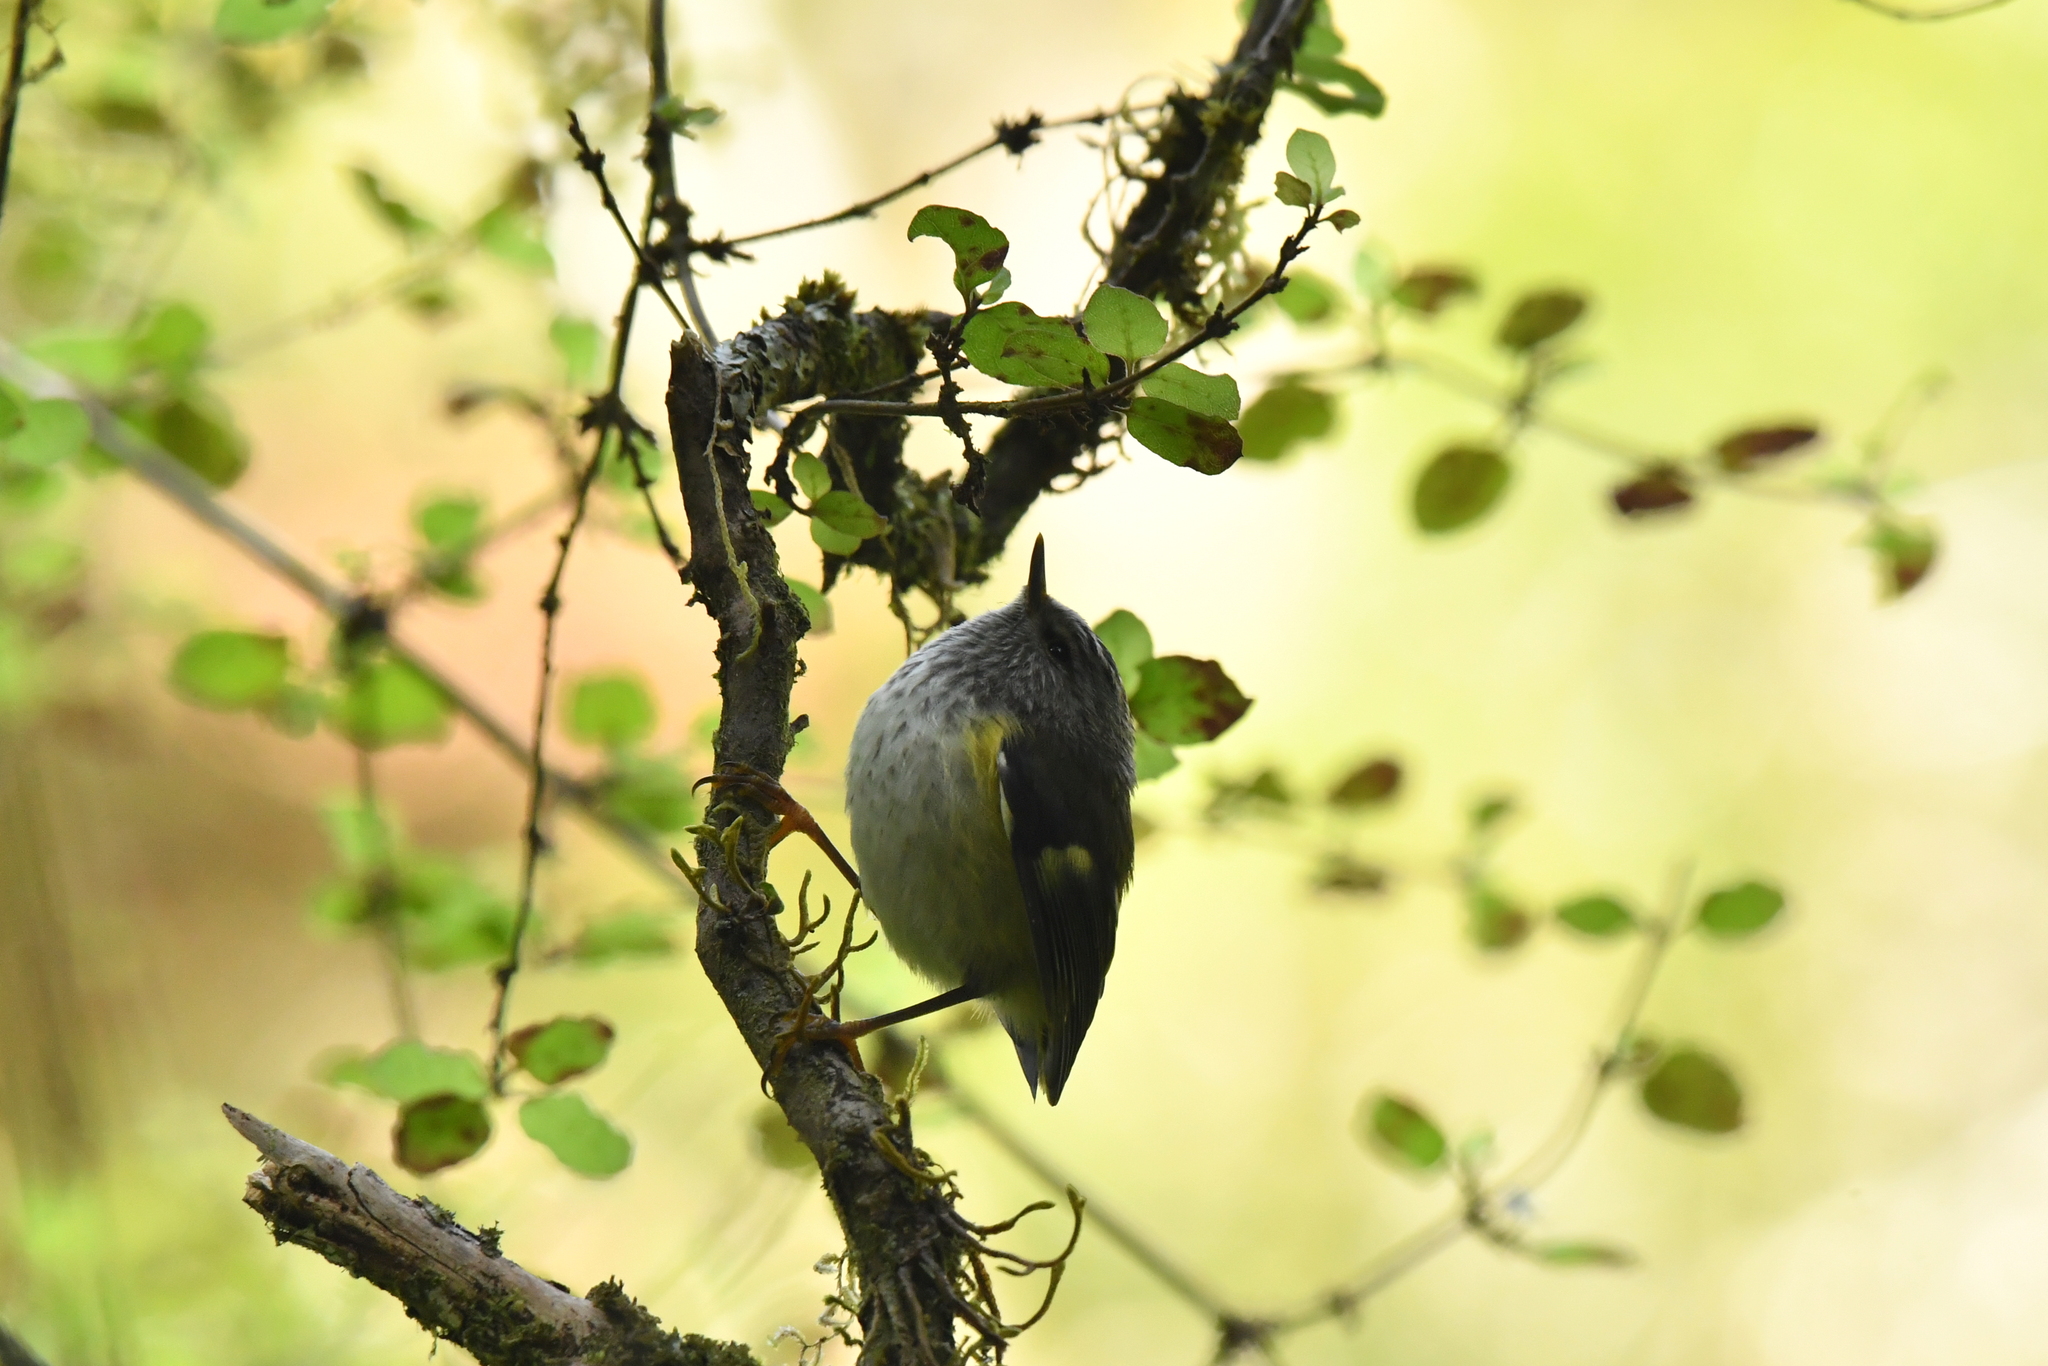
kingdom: Animalia
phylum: Chordata
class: Aves
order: Passeriformes
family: Acanthisittidae
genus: Acanthisitta
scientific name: Acanthisitta chloris
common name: Rifleman
